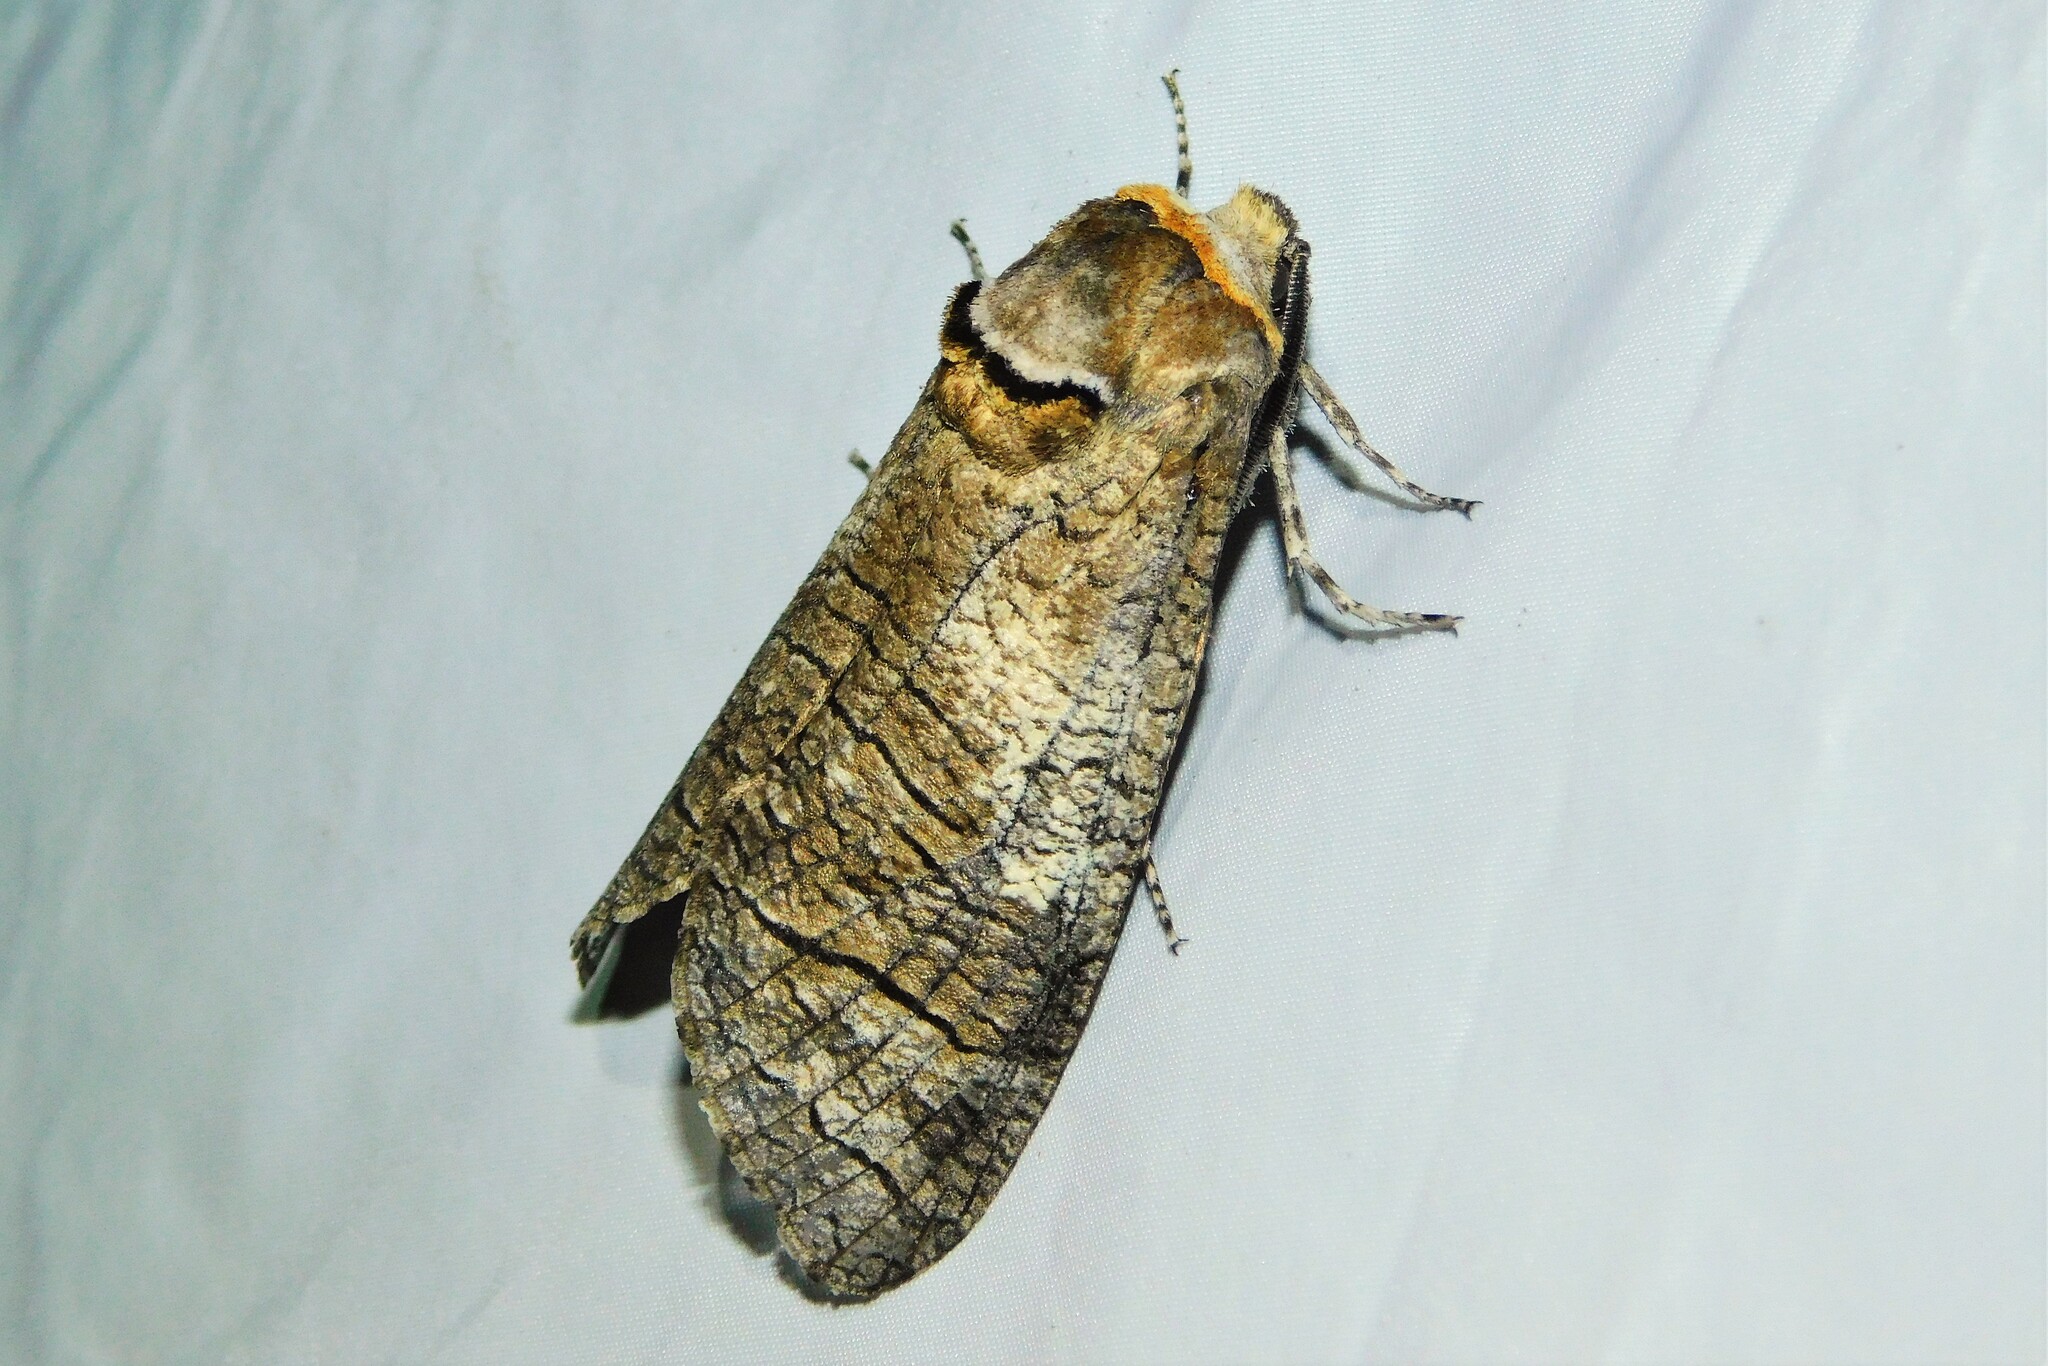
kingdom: Animalia
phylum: Arthropoda
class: Insecta
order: Lepidoptera
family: Cossidae
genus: Cossus
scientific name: Cossus cossus
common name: Goat moth
